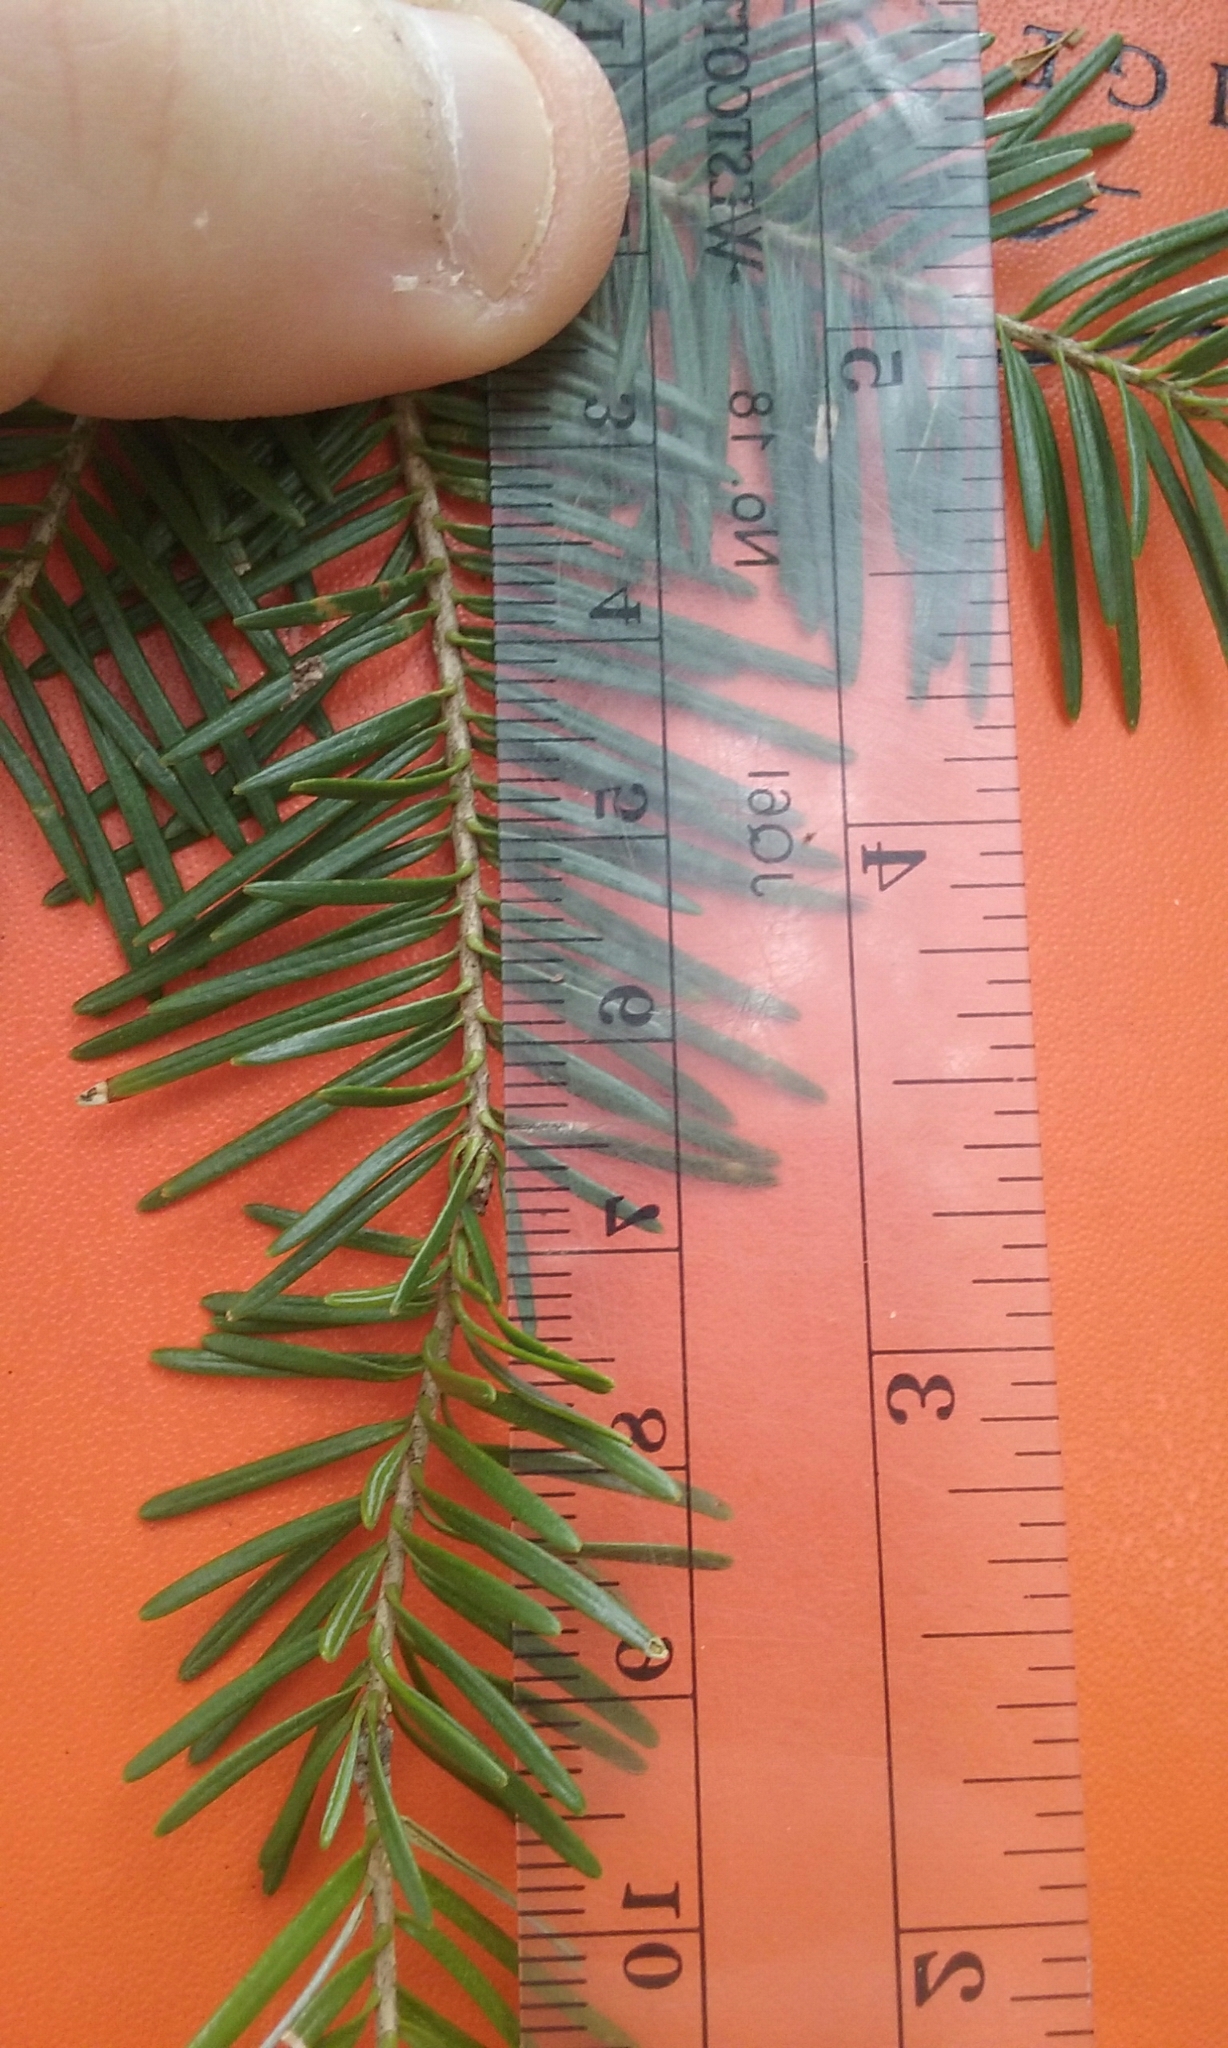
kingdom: Plantae
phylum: Tracheophyta
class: Pinopsida
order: Pinales
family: Pinaceae
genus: Abies
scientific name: Abies balsamea
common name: Balsam fir
